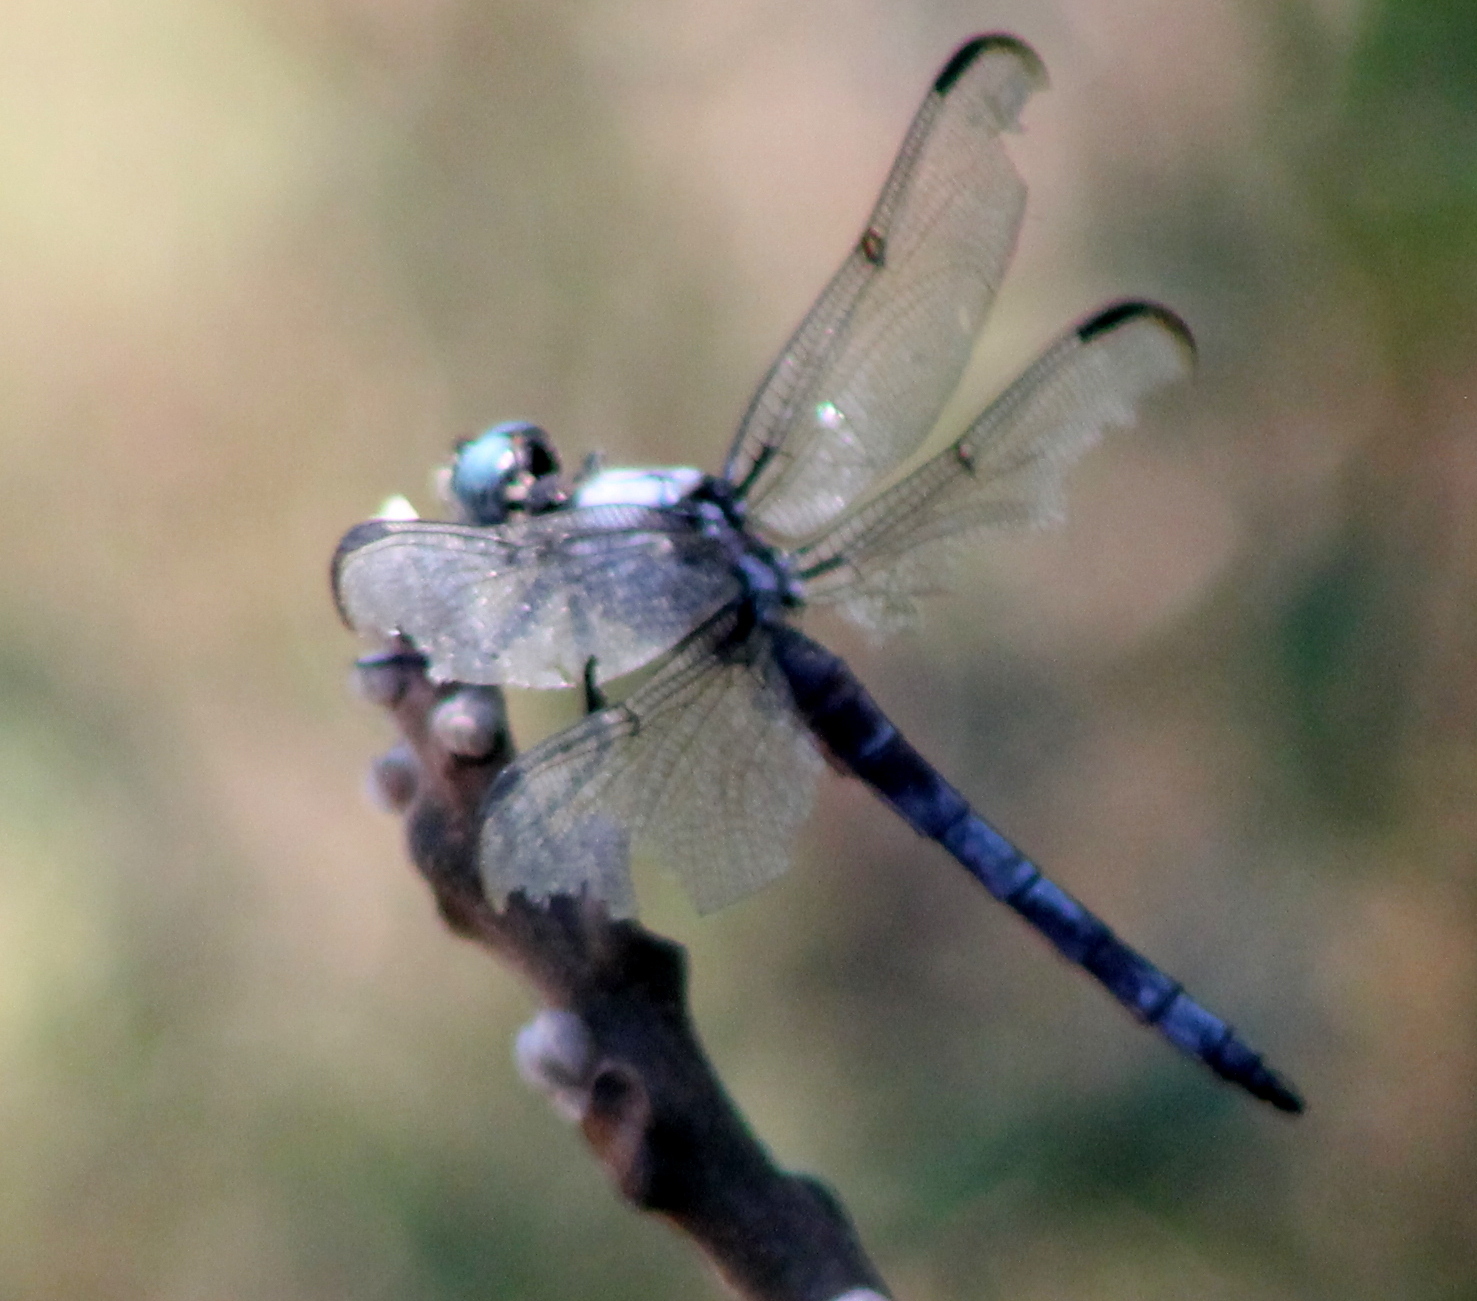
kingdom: Animalia
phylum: Arthropoda
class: Insecta
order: Odonata
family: Libellulidae
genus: Libellula
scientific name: Libellula vibrans
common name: Great blue skimmer
